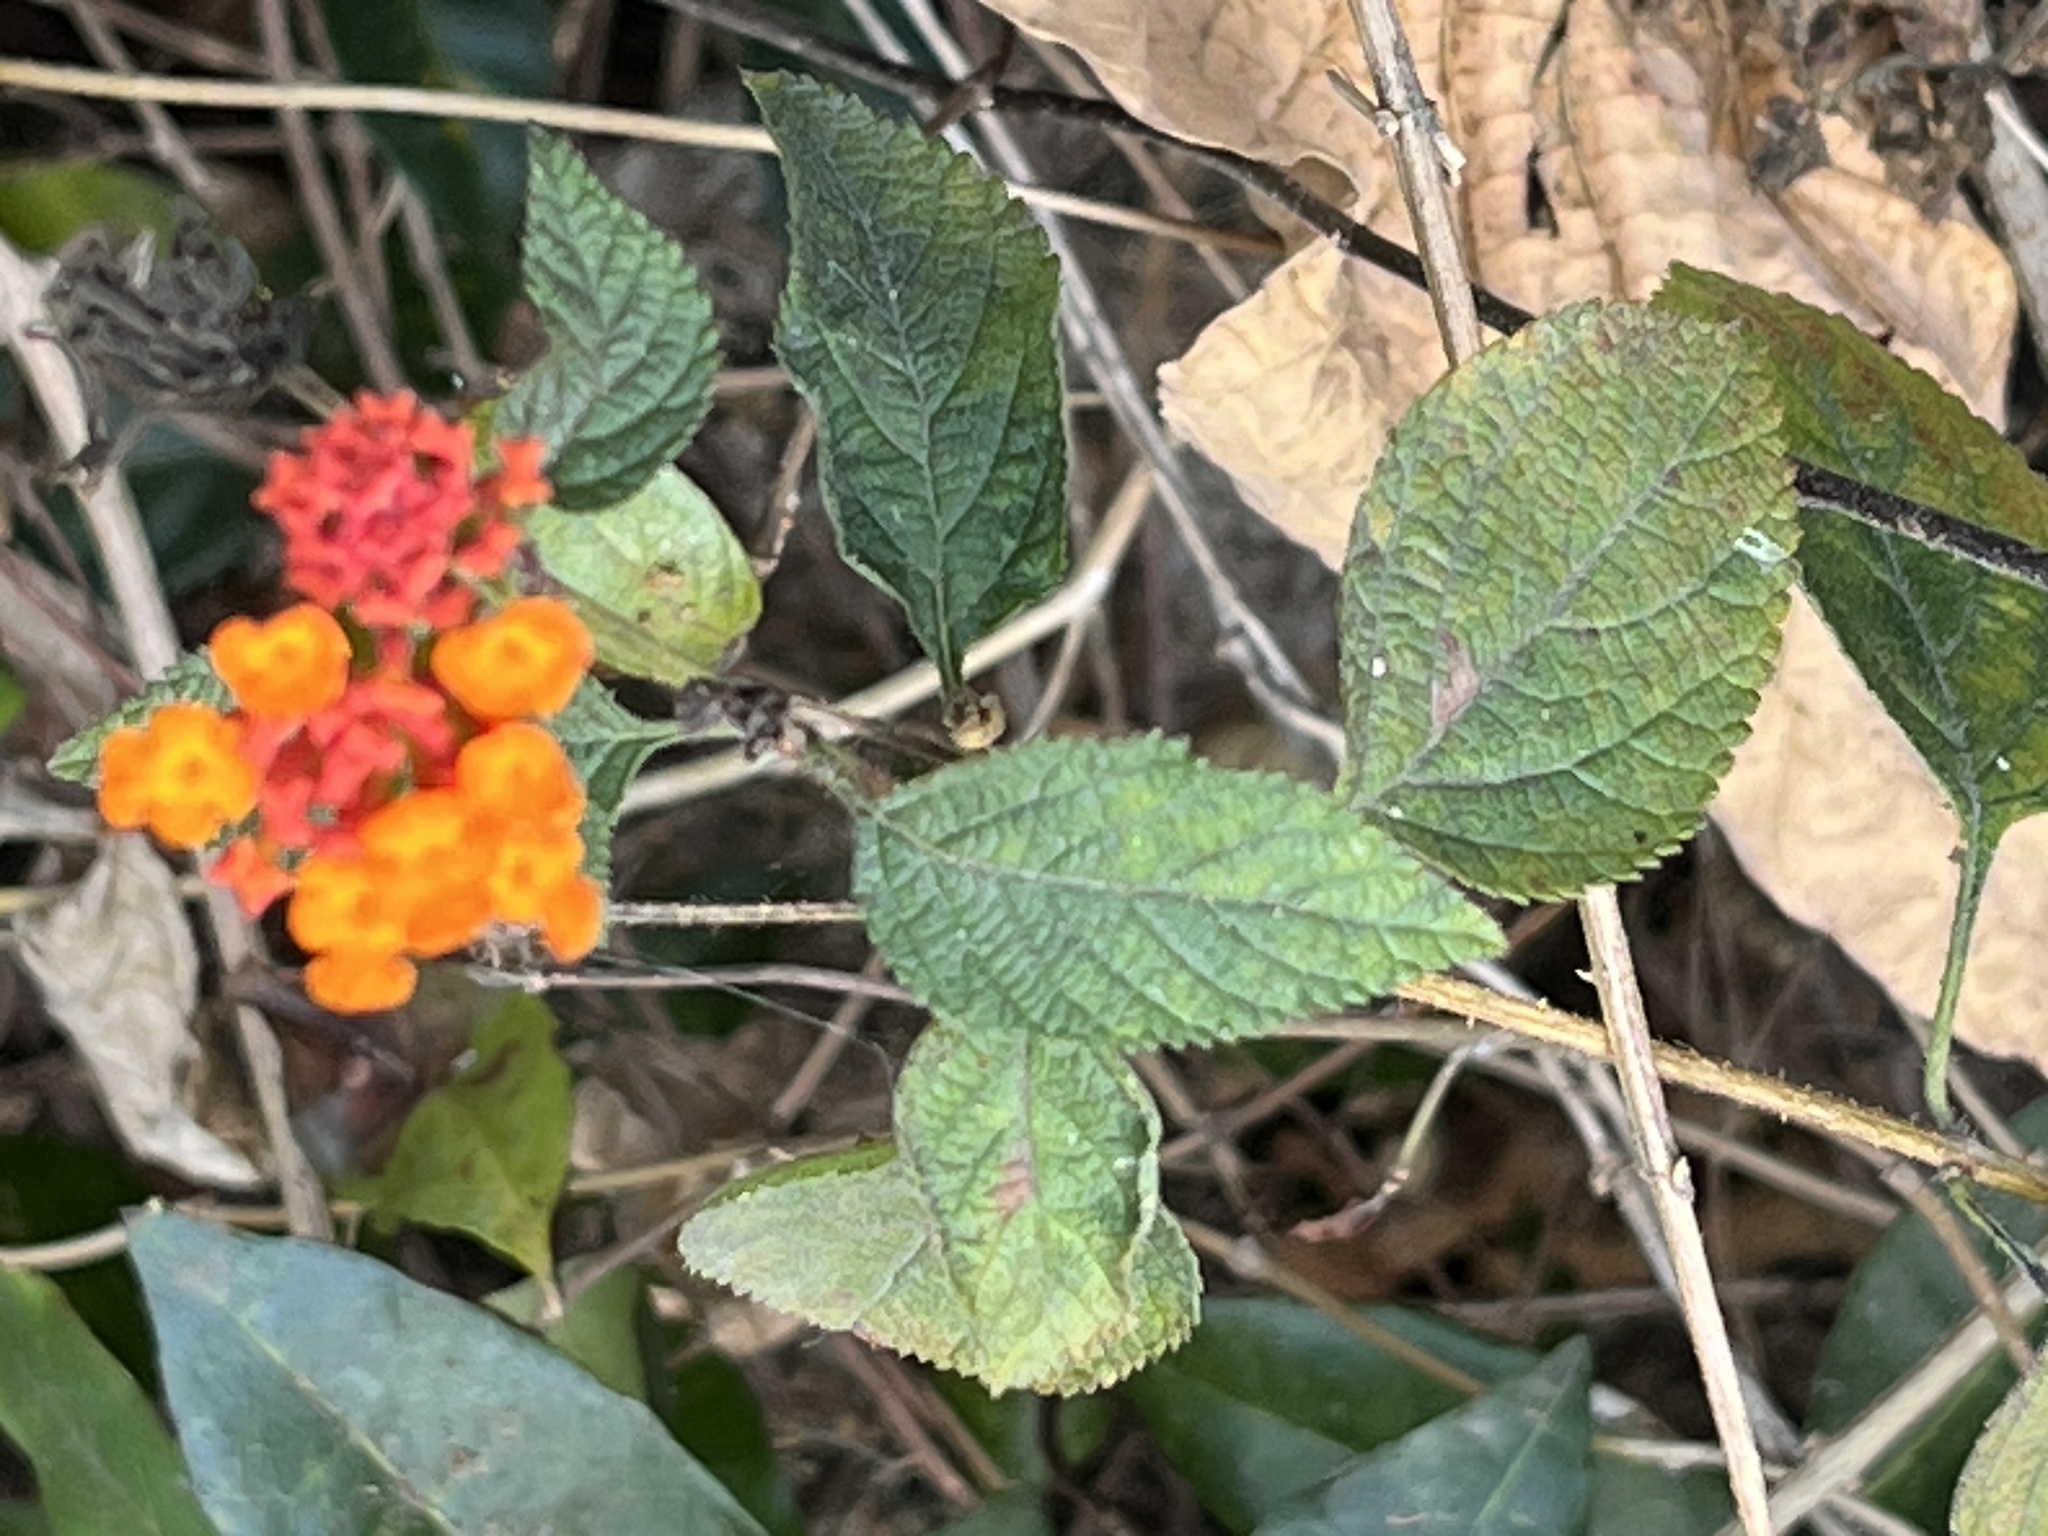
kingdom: Plantae
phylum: Tracheophyta
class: Magnoliopsida
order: Lamiales
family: Verbenaceae
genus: Lantana
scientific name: Lantana camara
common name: Lantana
